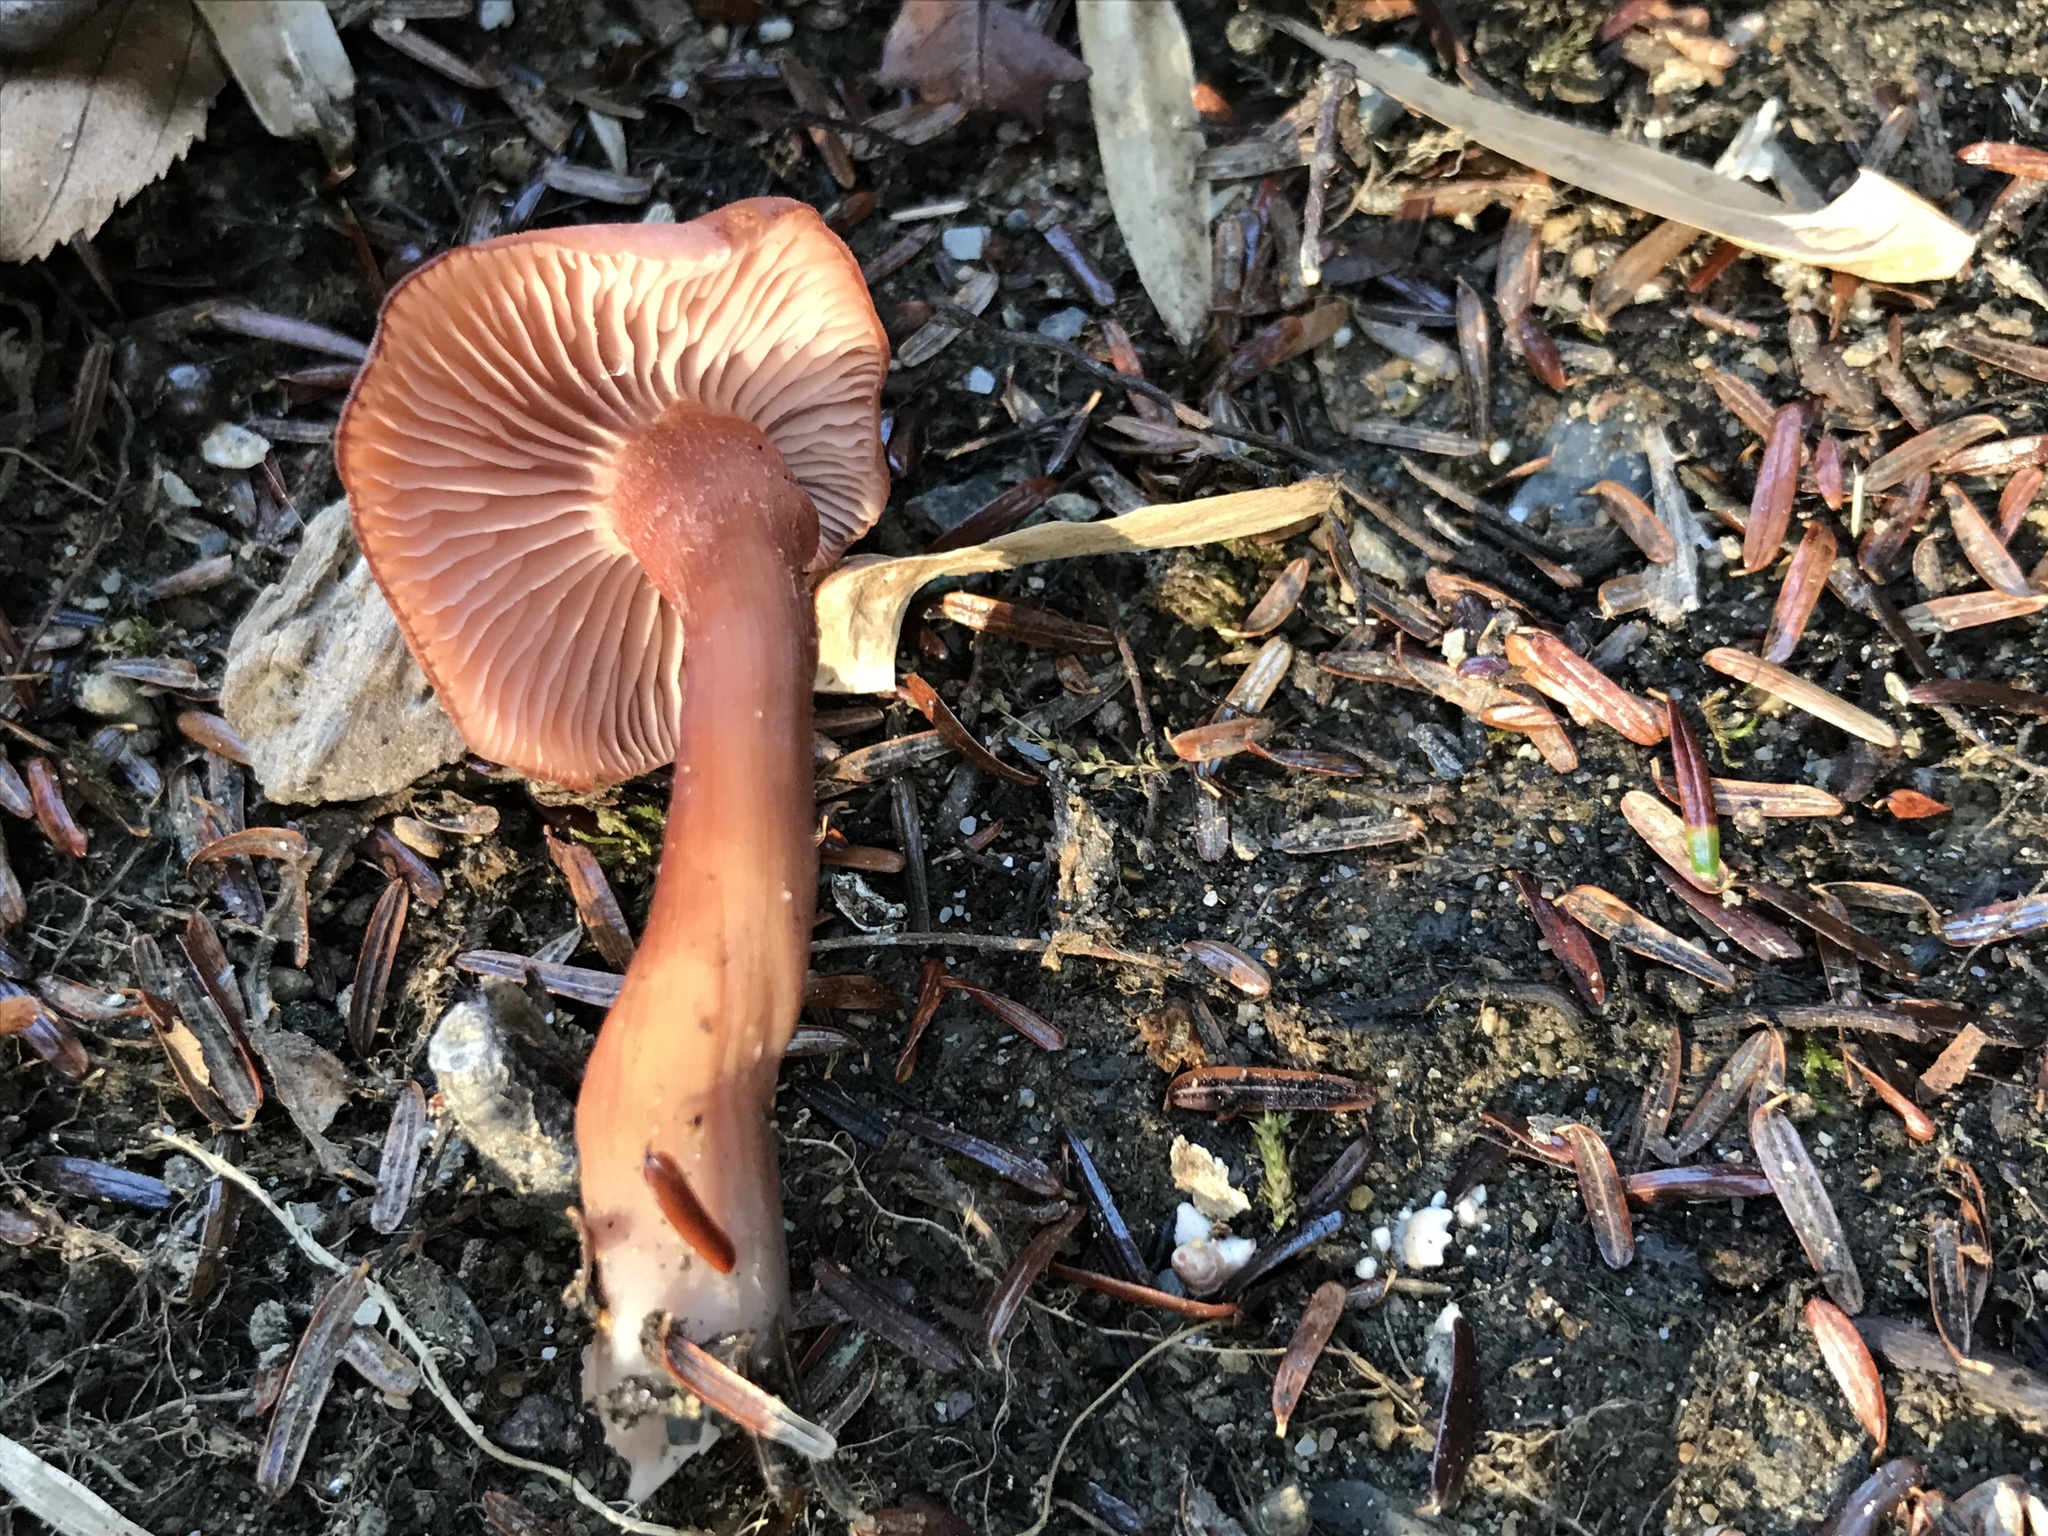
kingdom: Fungi
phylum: Basidiomycota
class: Agaricomycetes
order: Agaricales
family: Hydnangiaceae
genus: Laccaria
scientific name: Laccaria laccata
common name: Deceiver
